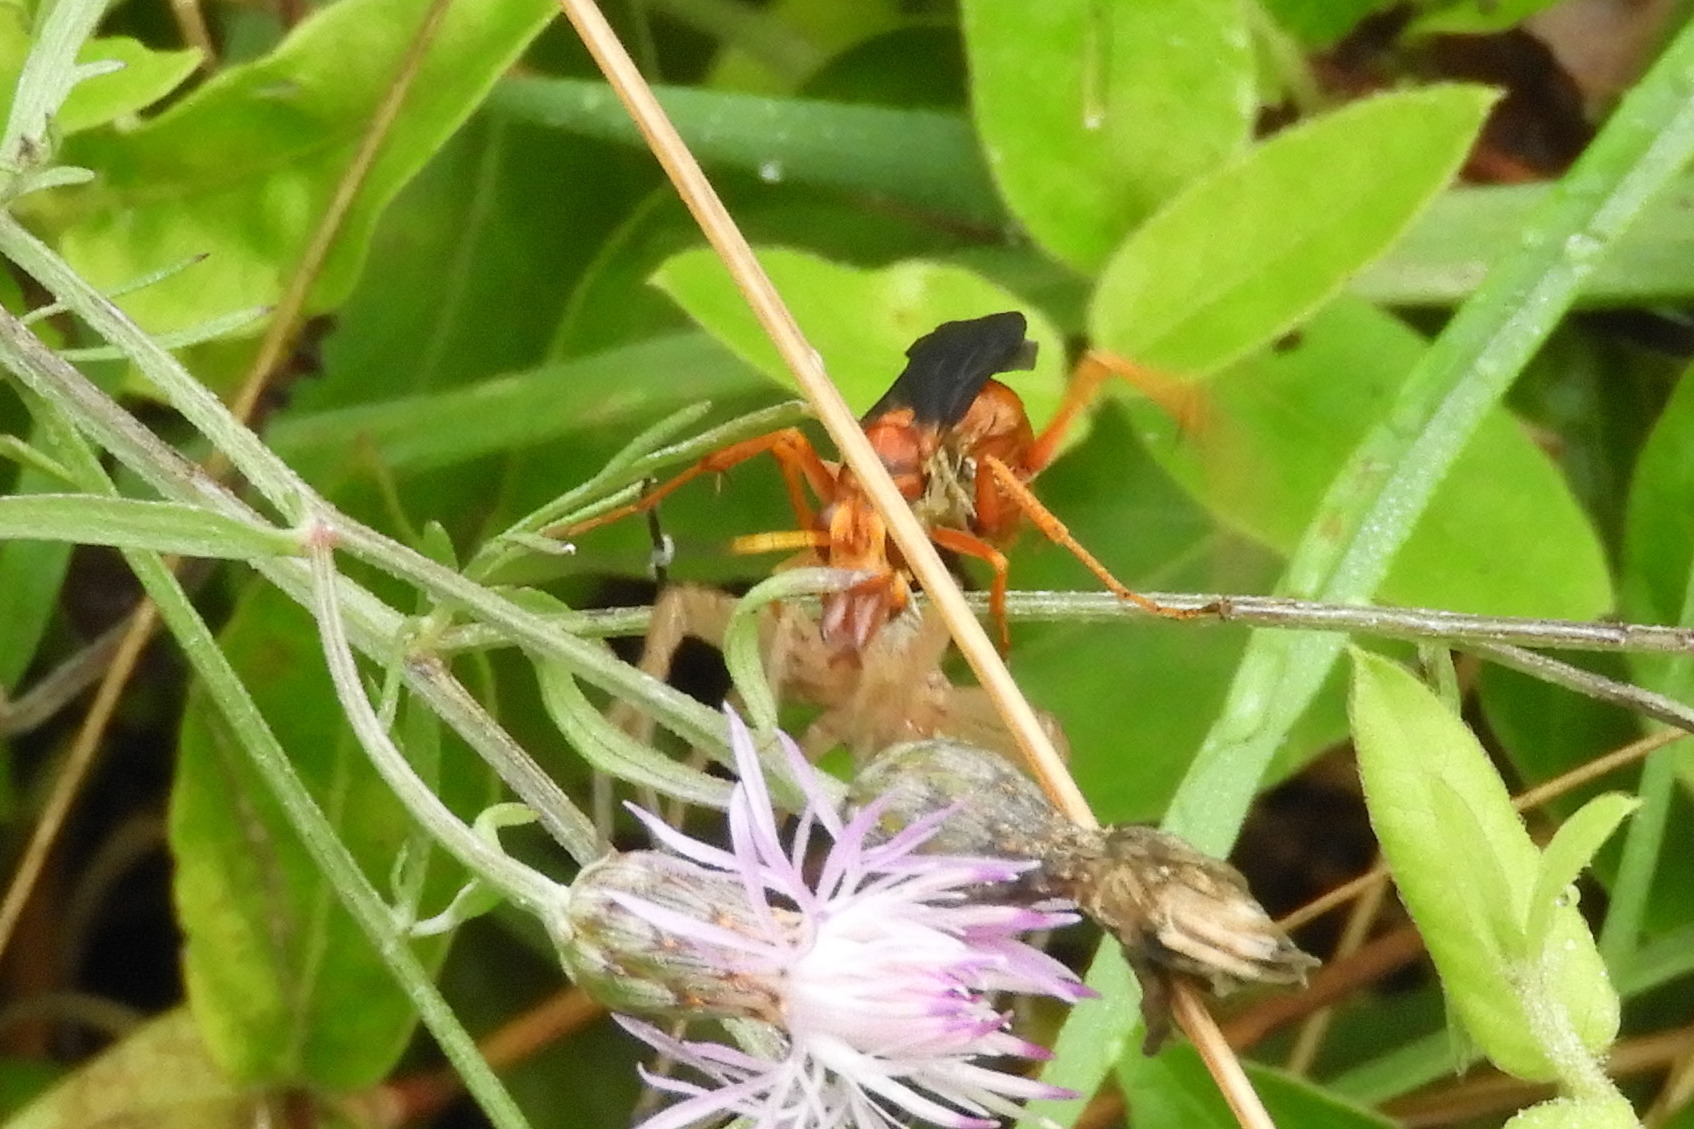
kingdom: Animalia
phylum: Arthropoda
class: Insecta
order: Hymenoptera
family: Pompilidae
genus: Priocnessus
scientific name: Priocnessus nuperus
